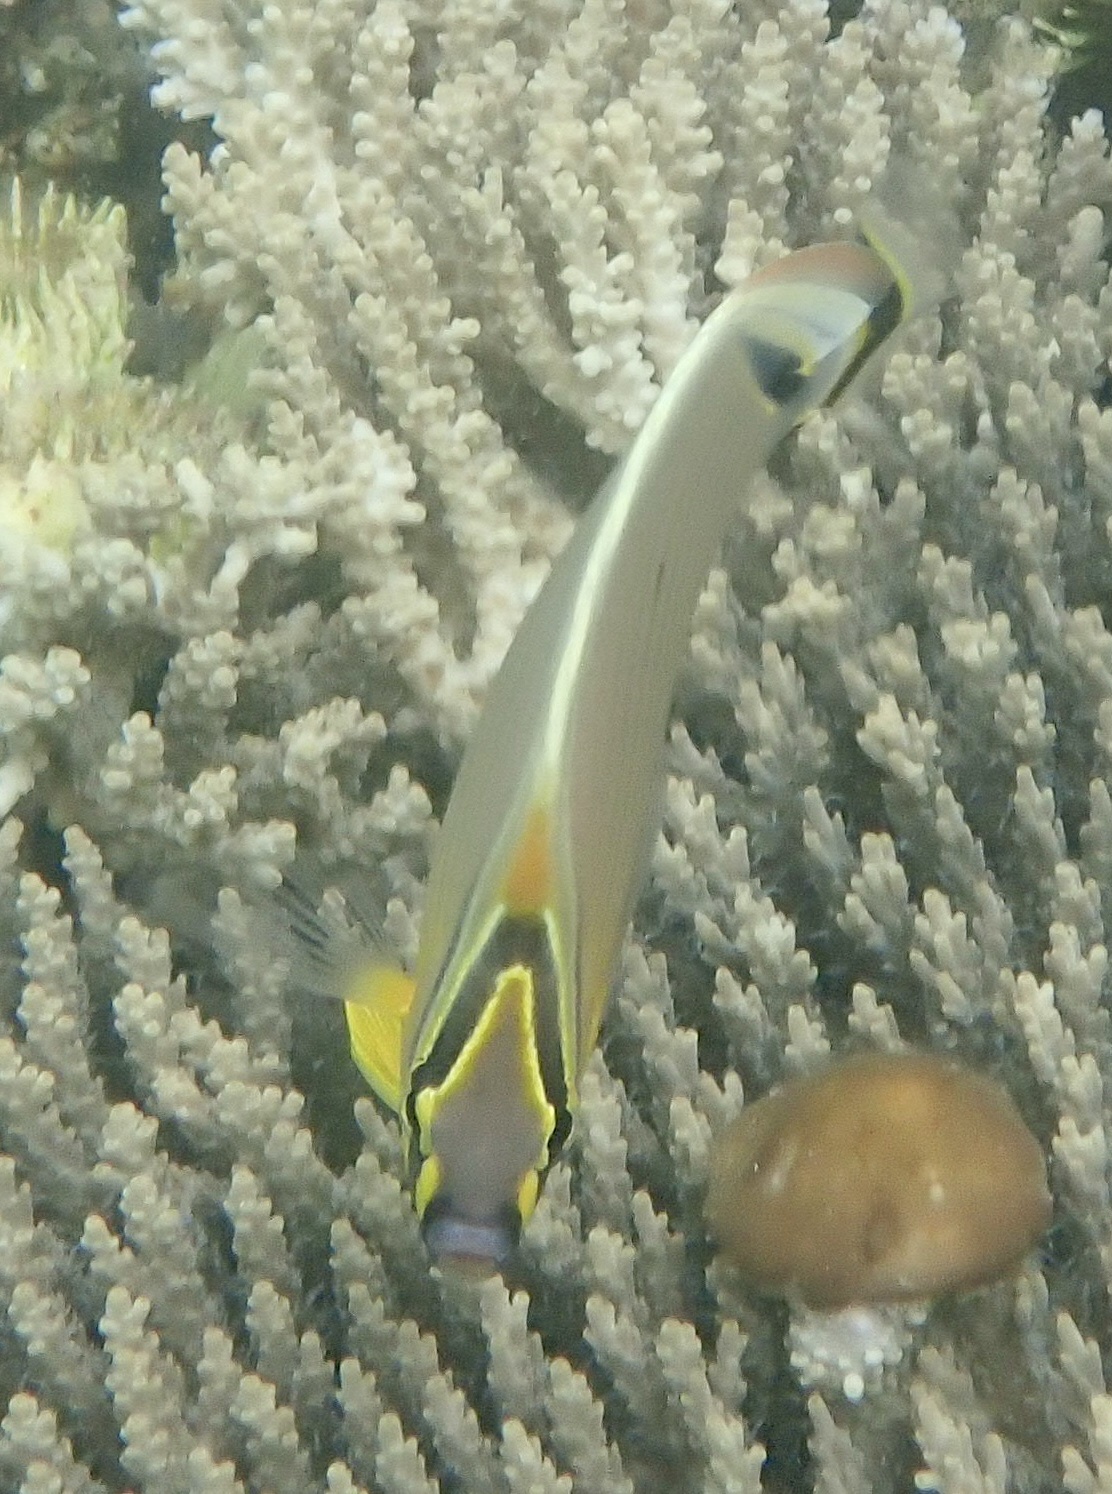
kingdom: Animalia
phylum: Chordata
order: Perciformes
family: Chaetodontidae
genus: Chaetodon
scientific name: Chaetodon lunulatus
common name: Redfin butterflyfish
